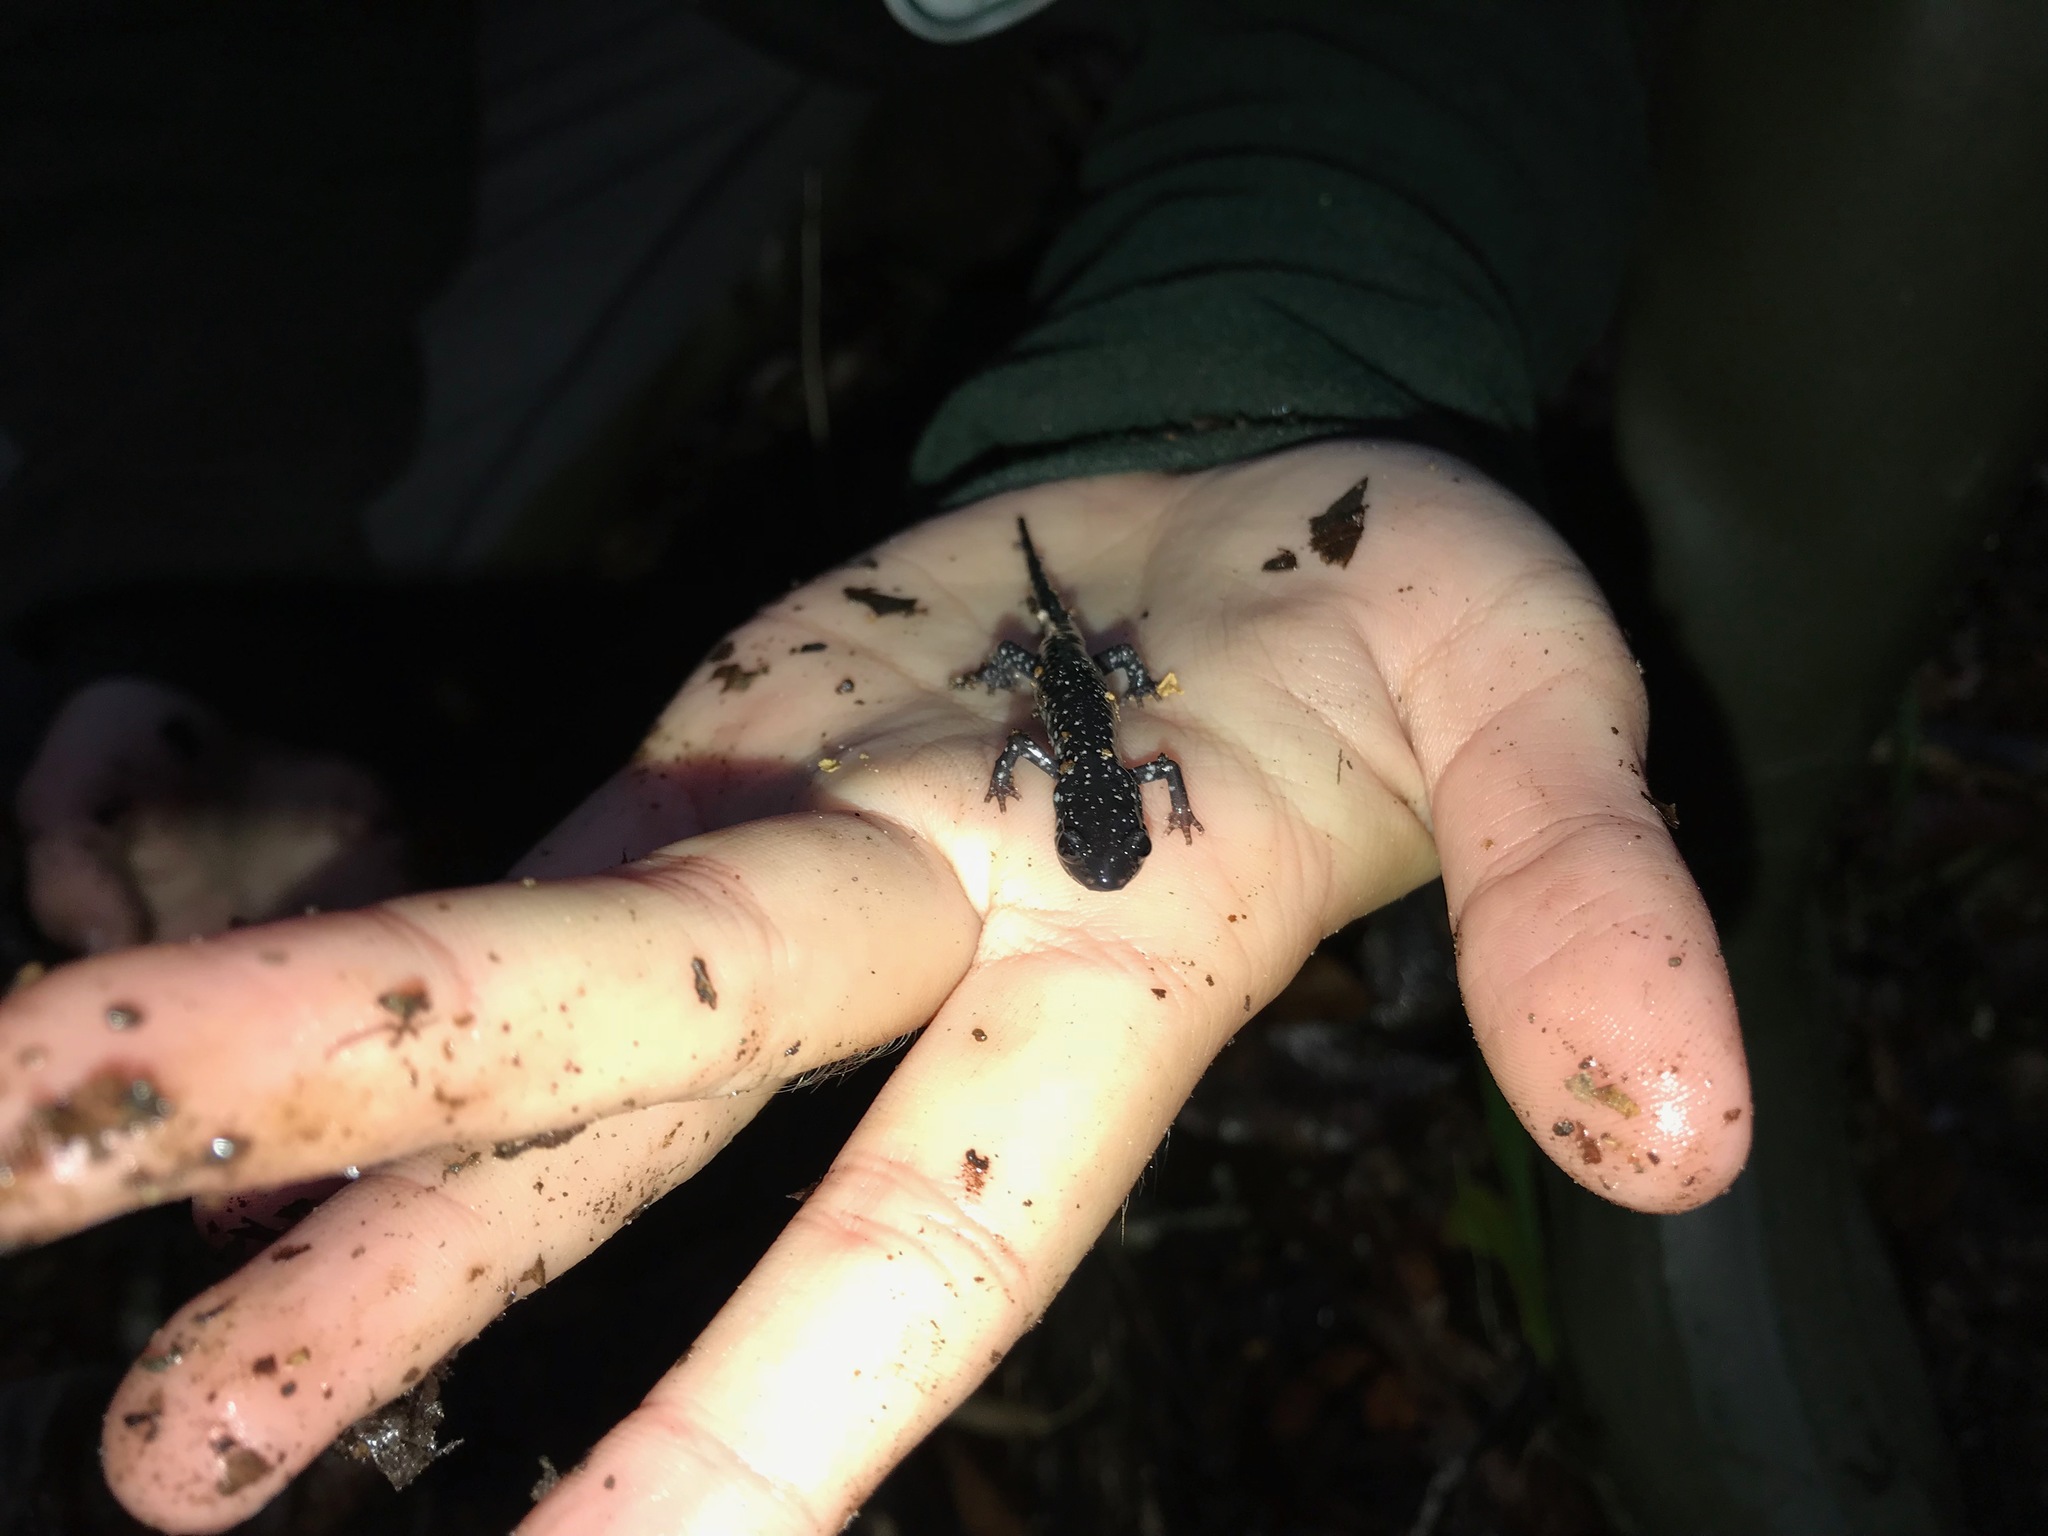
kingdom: Animalia
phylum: Chordata
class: Amphibia
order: Caudata
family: Plethodontidae
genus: Plethodon
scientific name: Plethodon albagula
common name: Western slimy salamander
